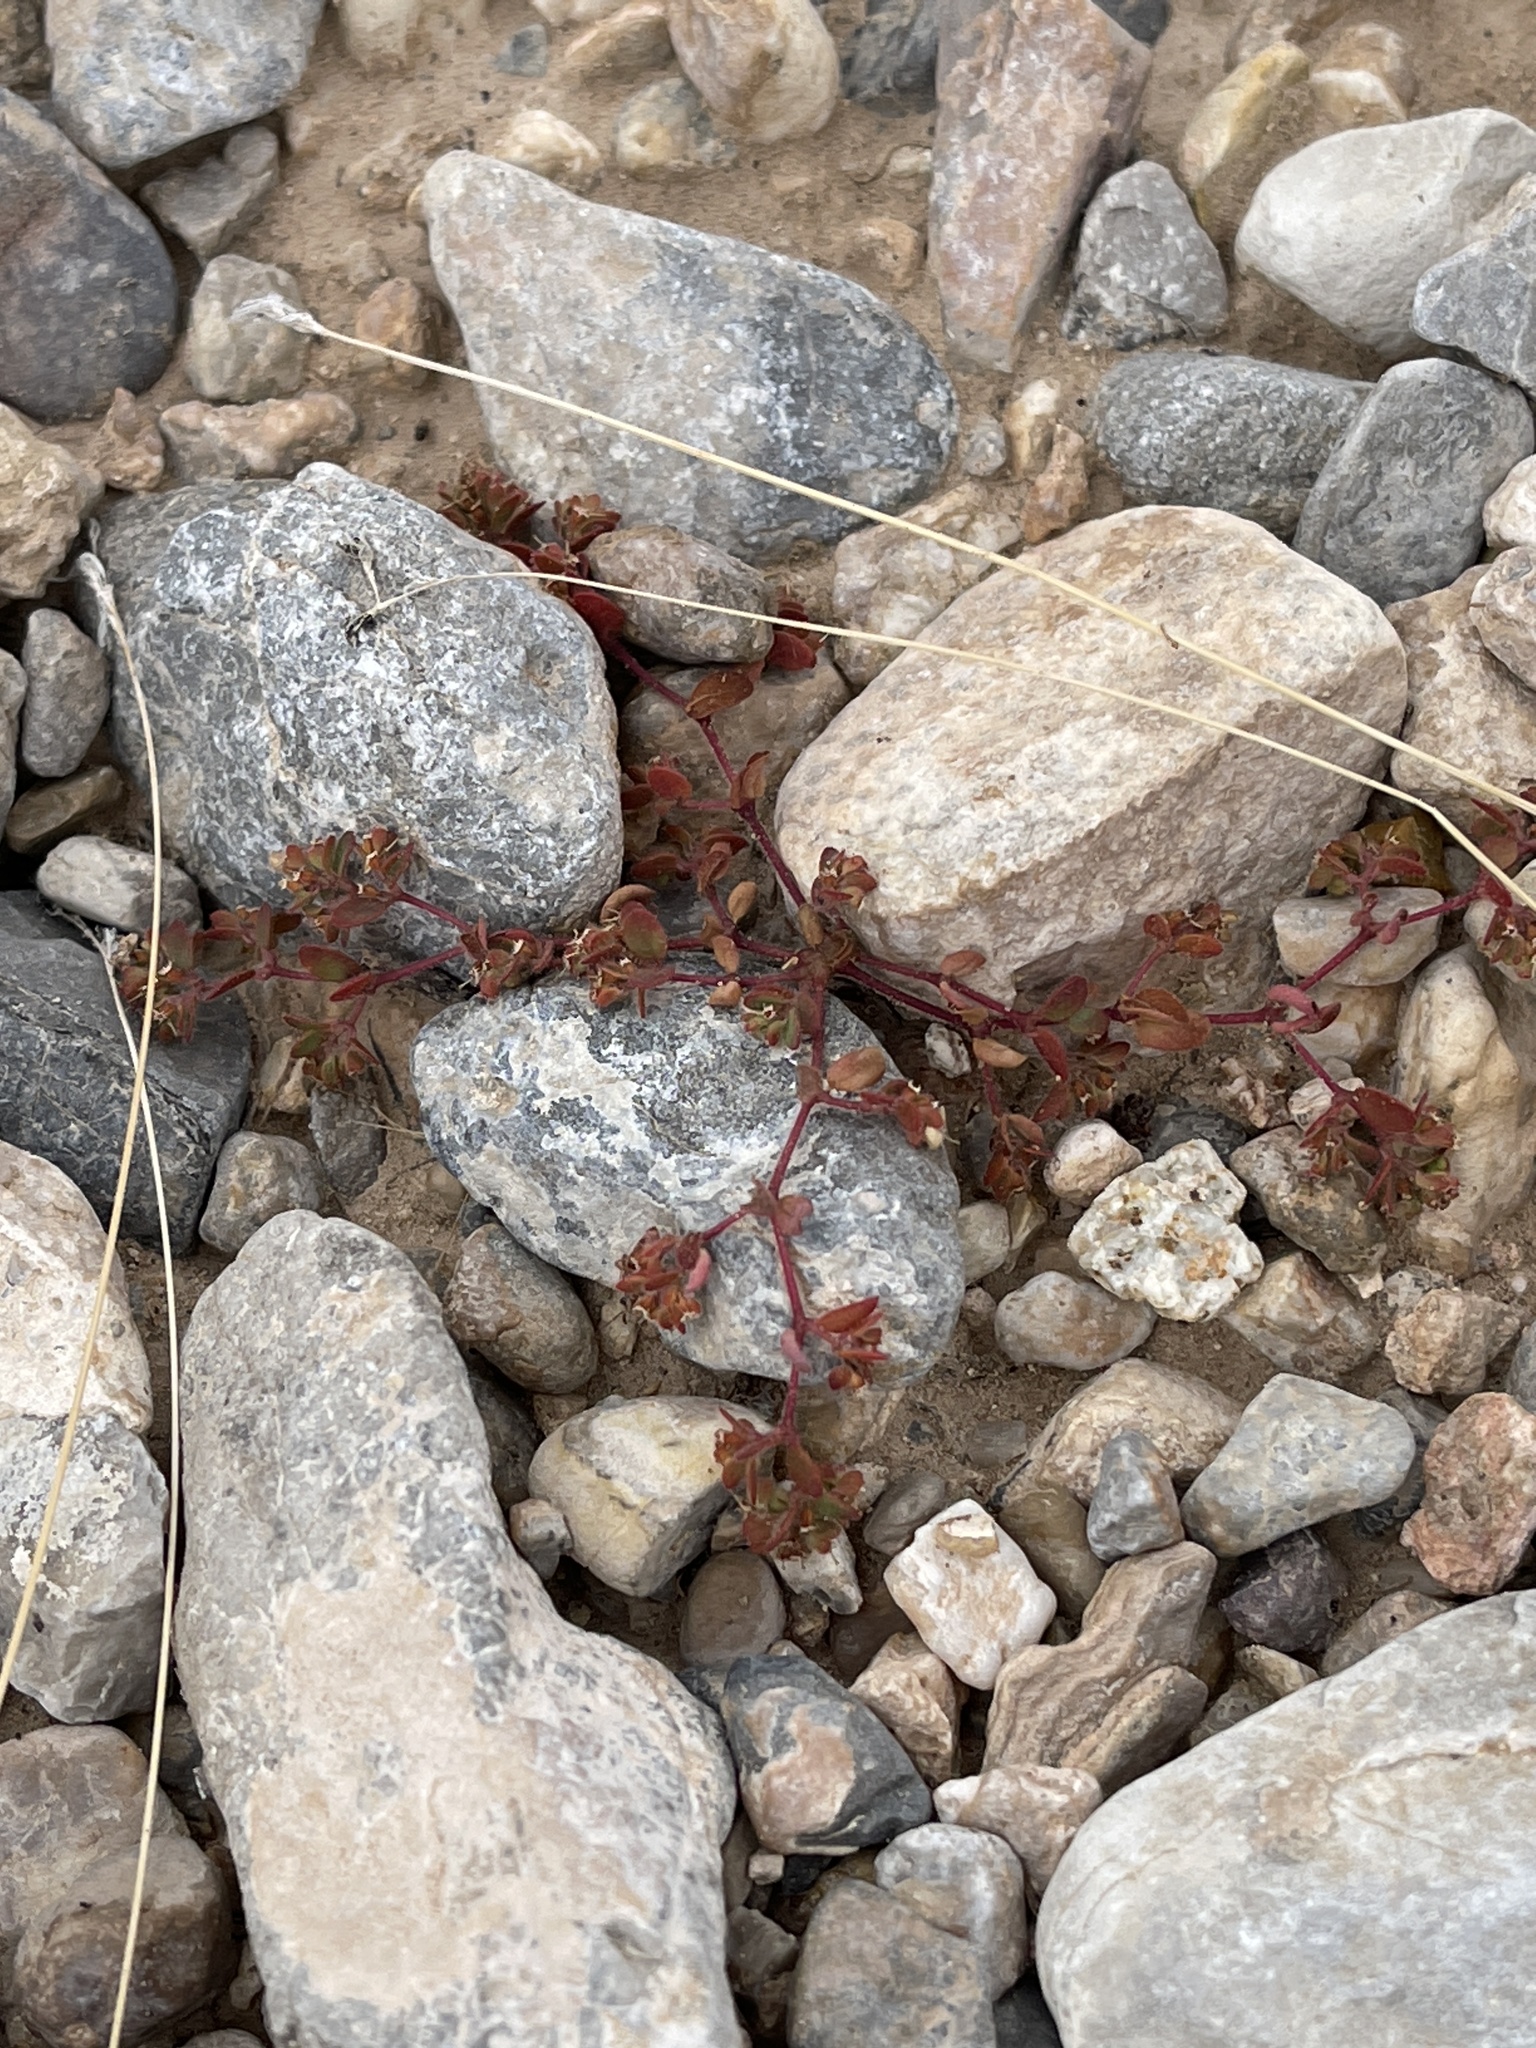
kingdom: Plantae
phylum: Tracheophyta
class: Magnoliopsida
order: Malpighiales
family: Euphorbiaceae
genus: Euphorbia
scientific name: Euphorbia setiloba
